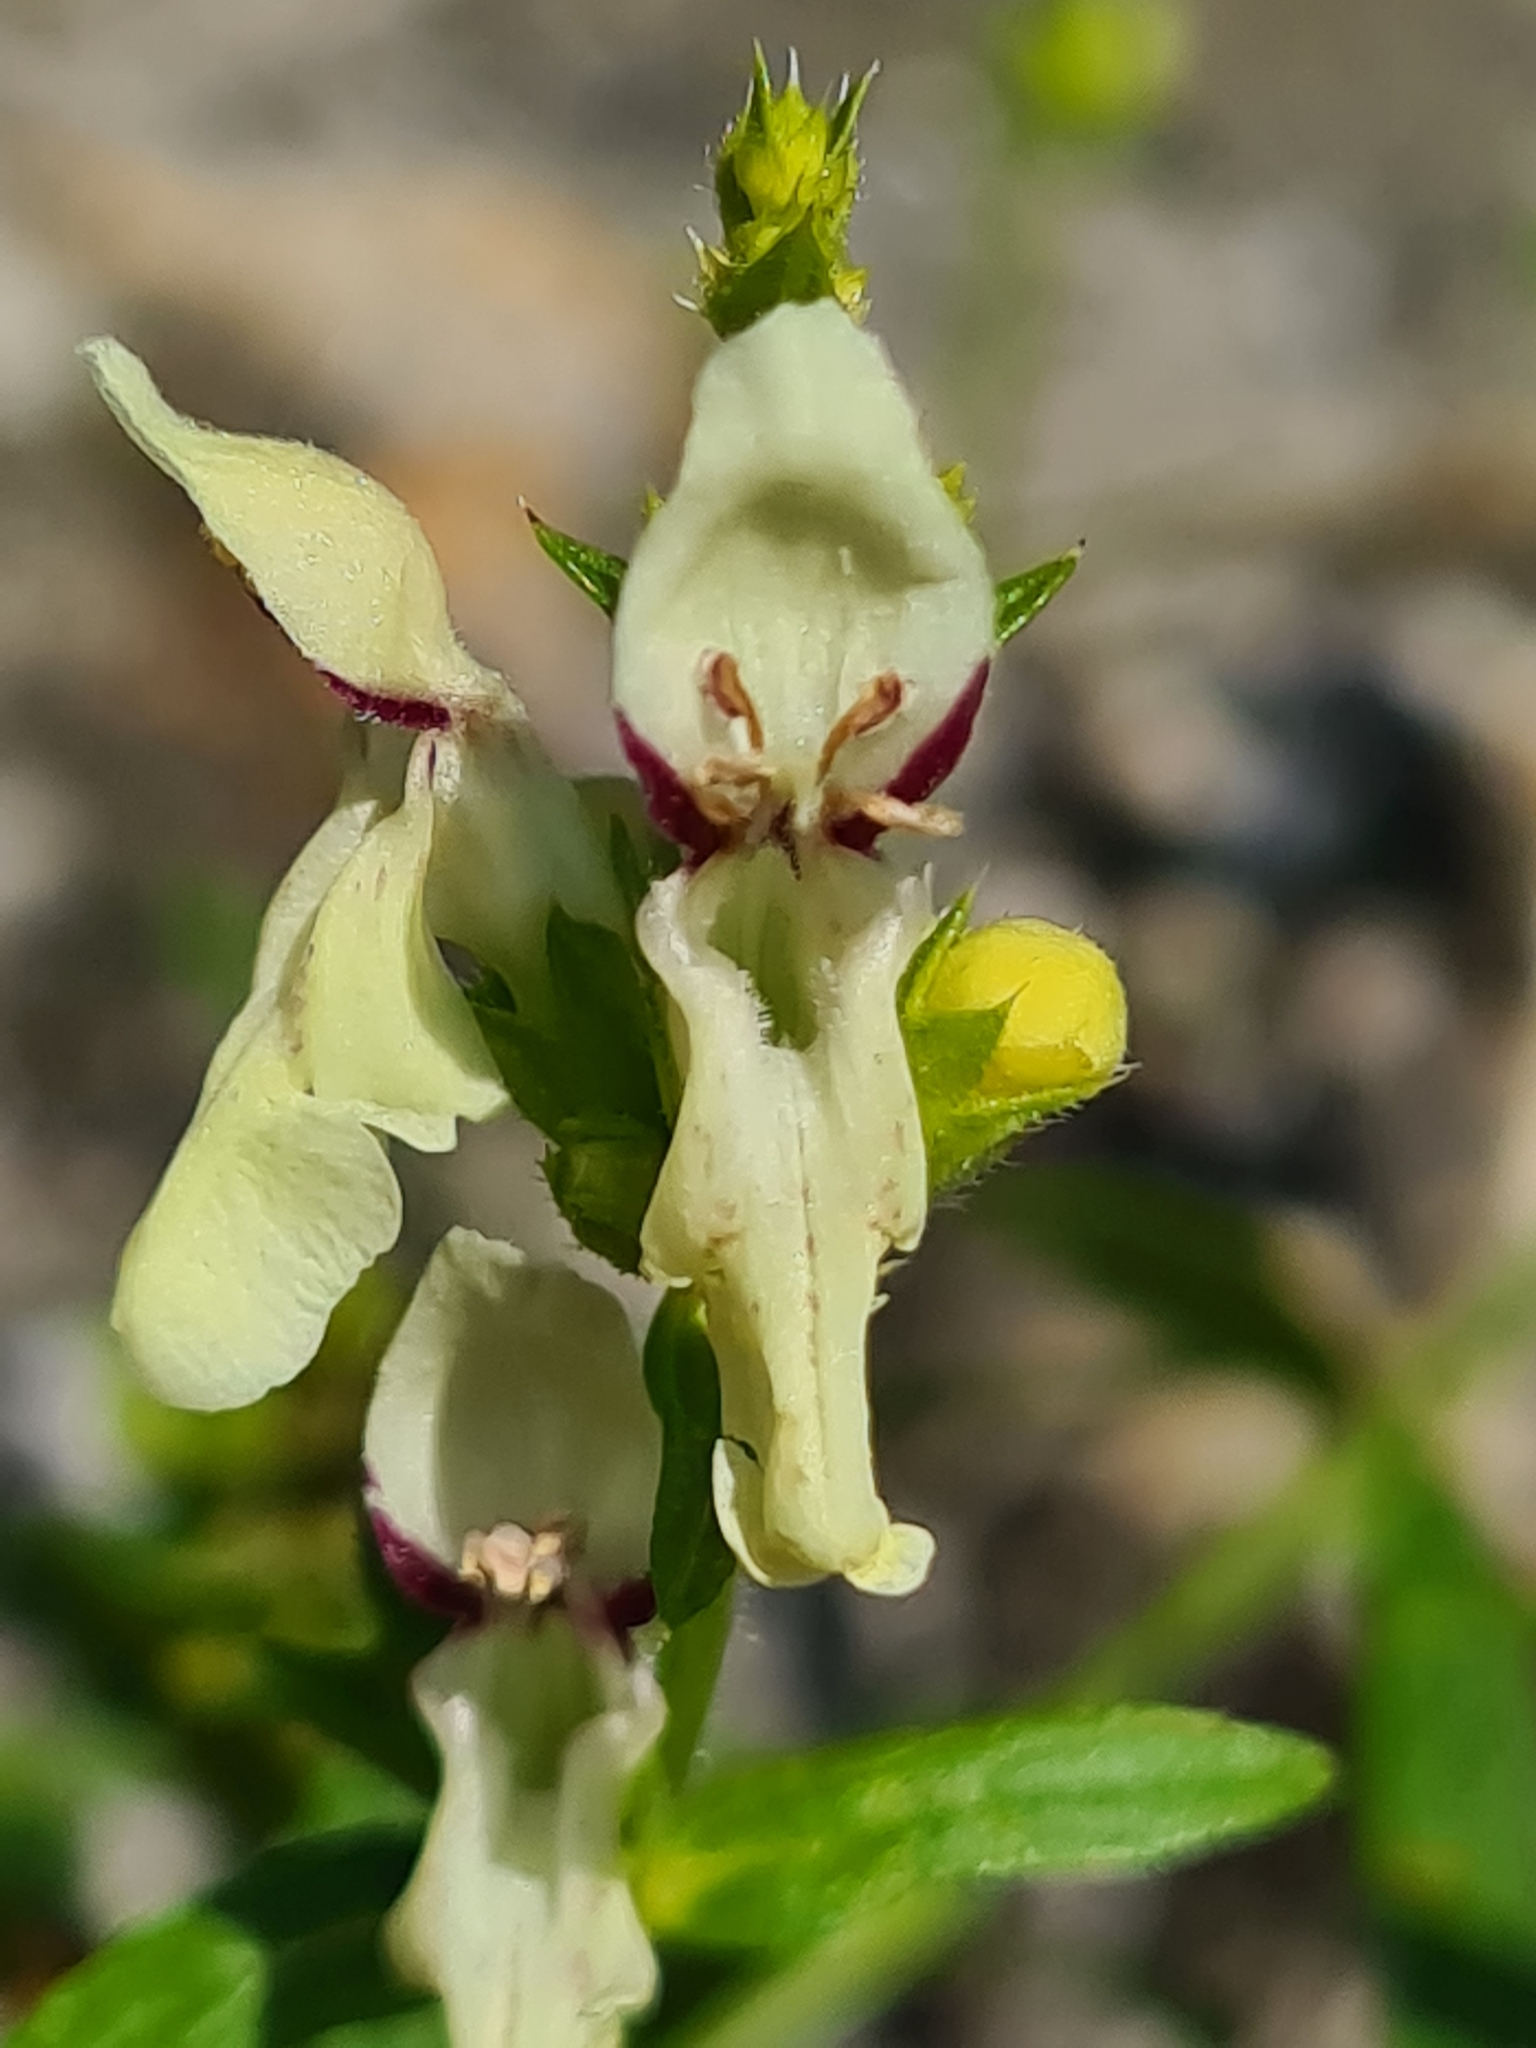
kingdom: Plantae
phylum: Tracheophyta
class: Magnoliopsida
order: Lamiales
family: Lamiaceae
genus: Stachys
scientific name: Stachys recta
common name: Perennial yellow-woundwort
